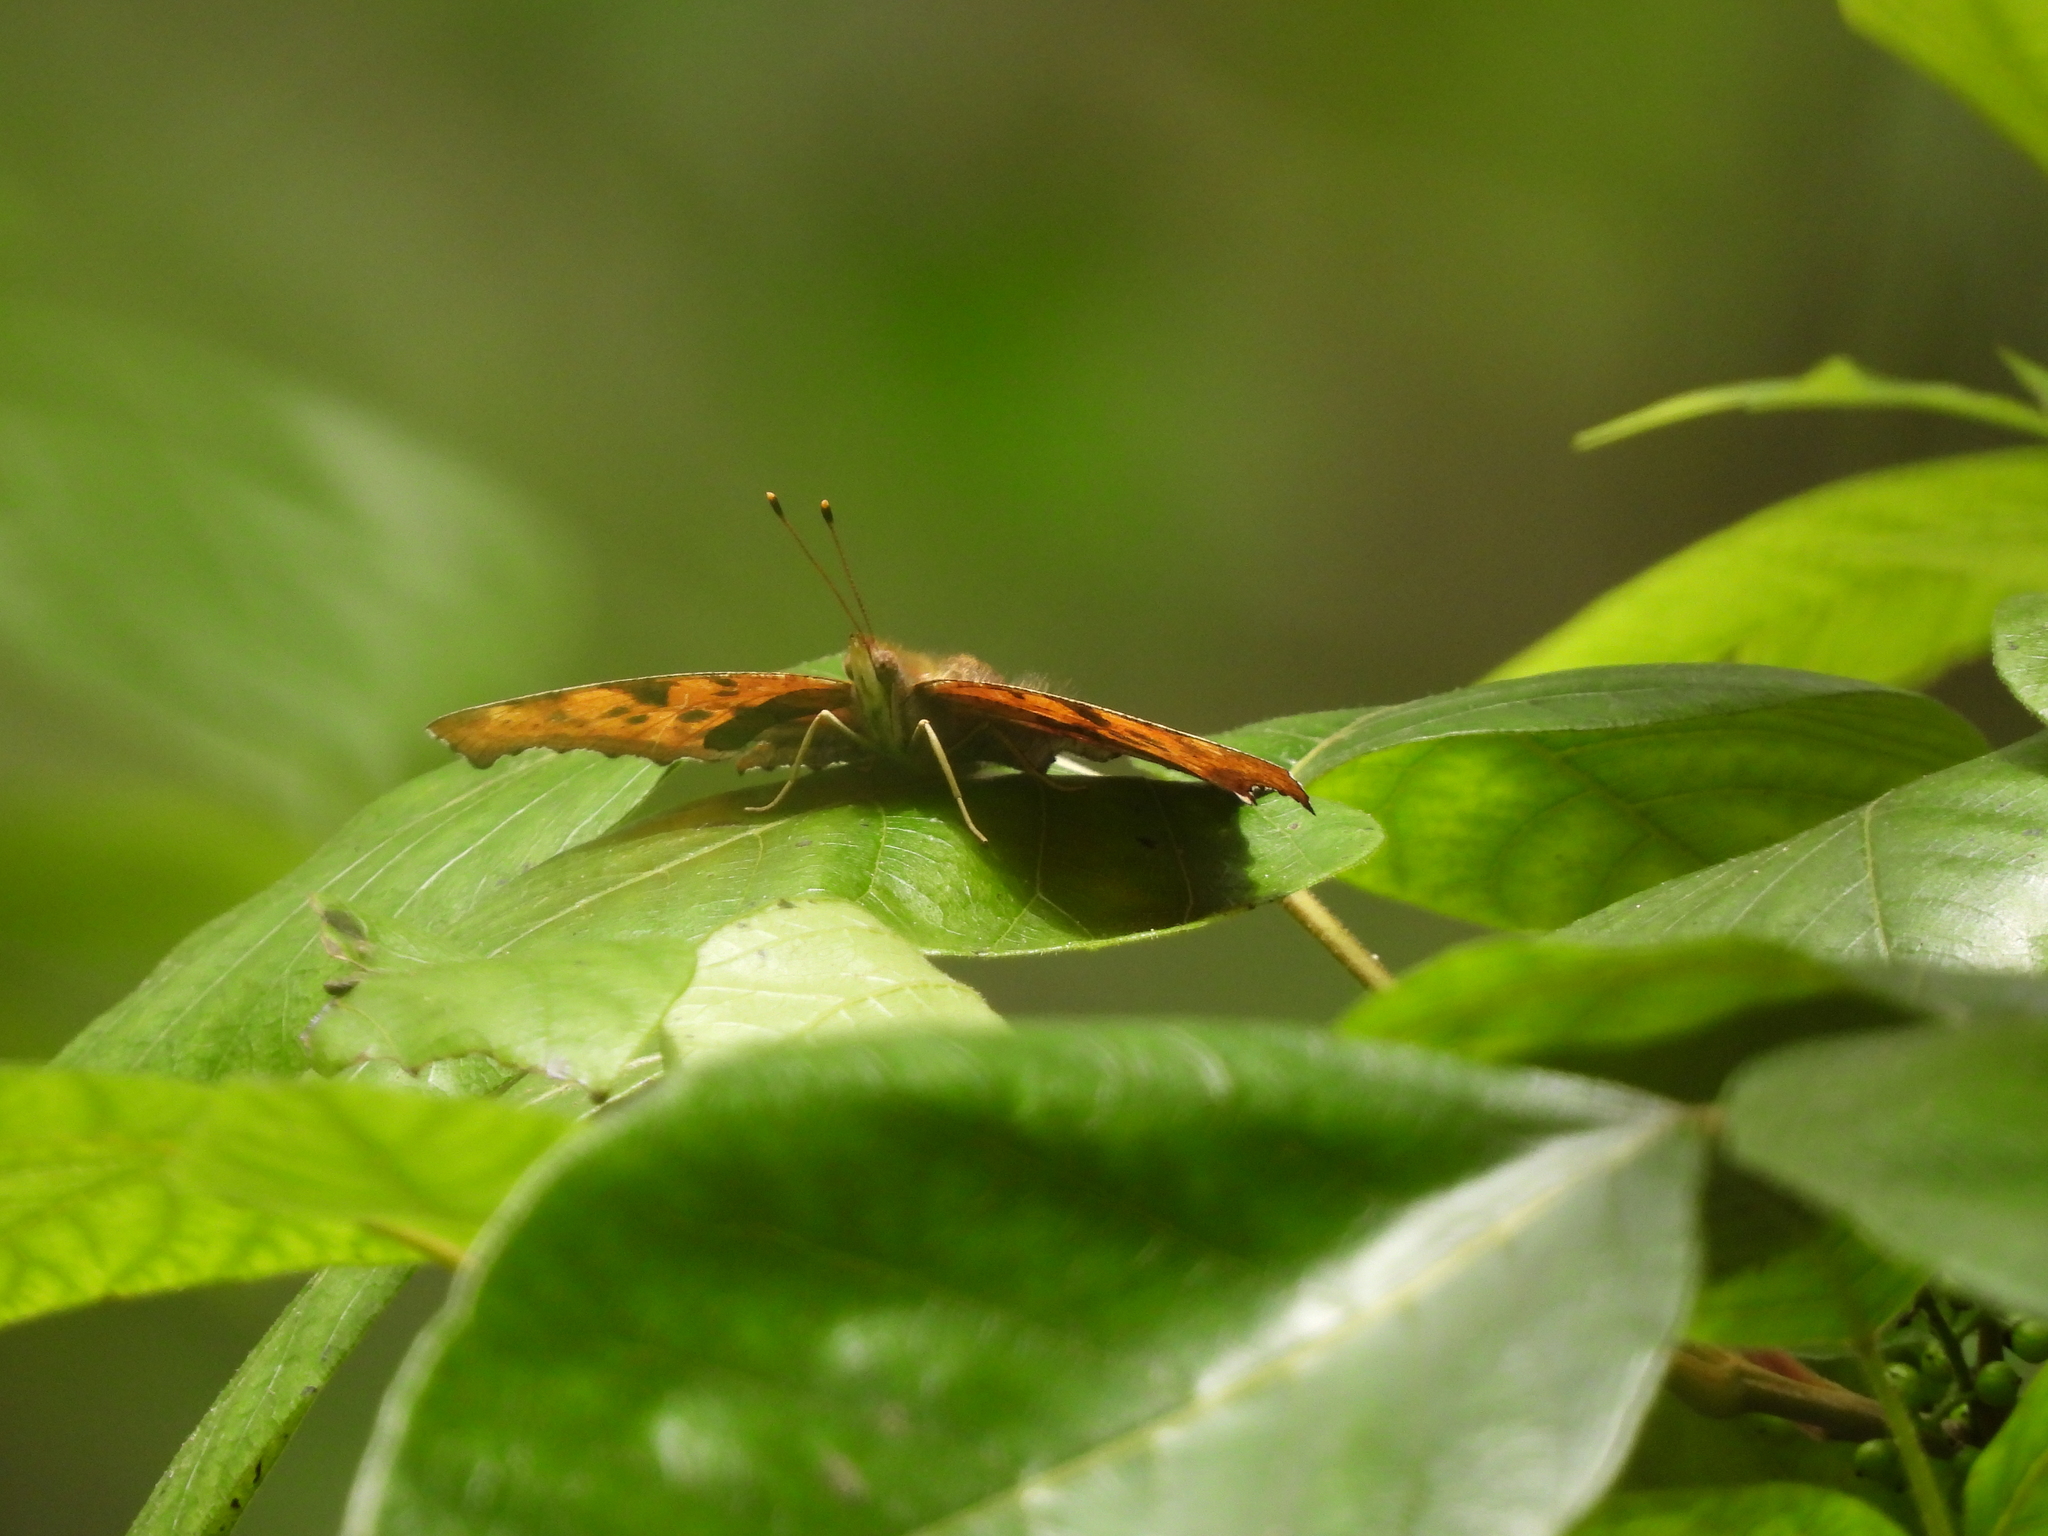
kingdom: Animalia
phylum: Arthropoda
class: Insecta
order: Lepidoptera
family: Nymphalidae
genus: Polygonia
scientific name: Polygonia interrogationis
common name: Question mark
